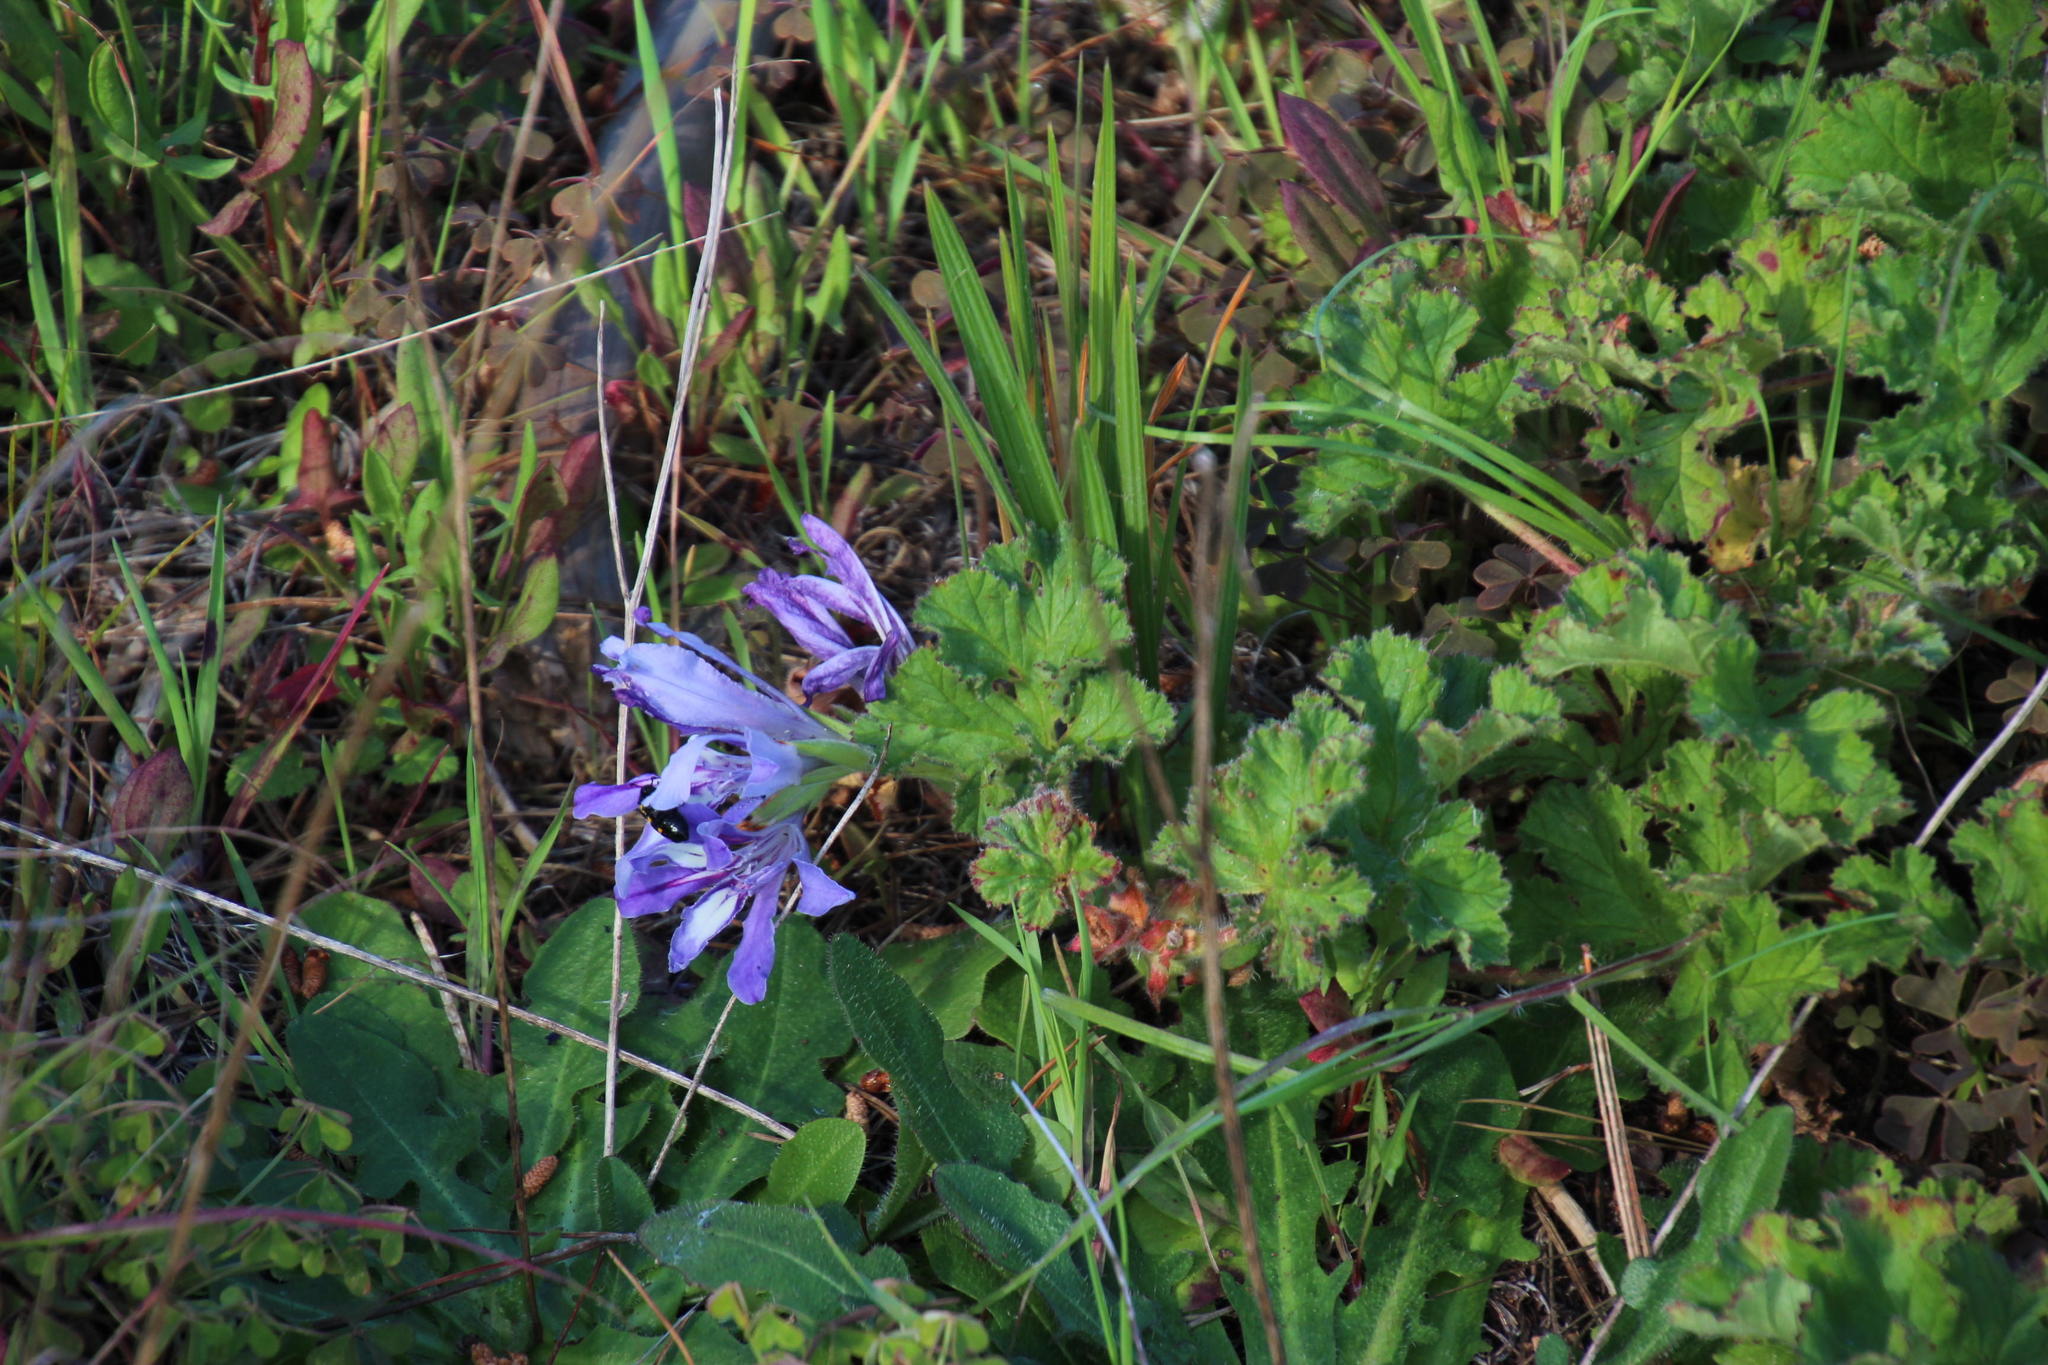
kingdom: Plantae
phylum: Tracheophyta
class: Liliopsida
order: Asparagales
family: Iridaceae
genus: Babiana
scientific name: Babiana ambigua
